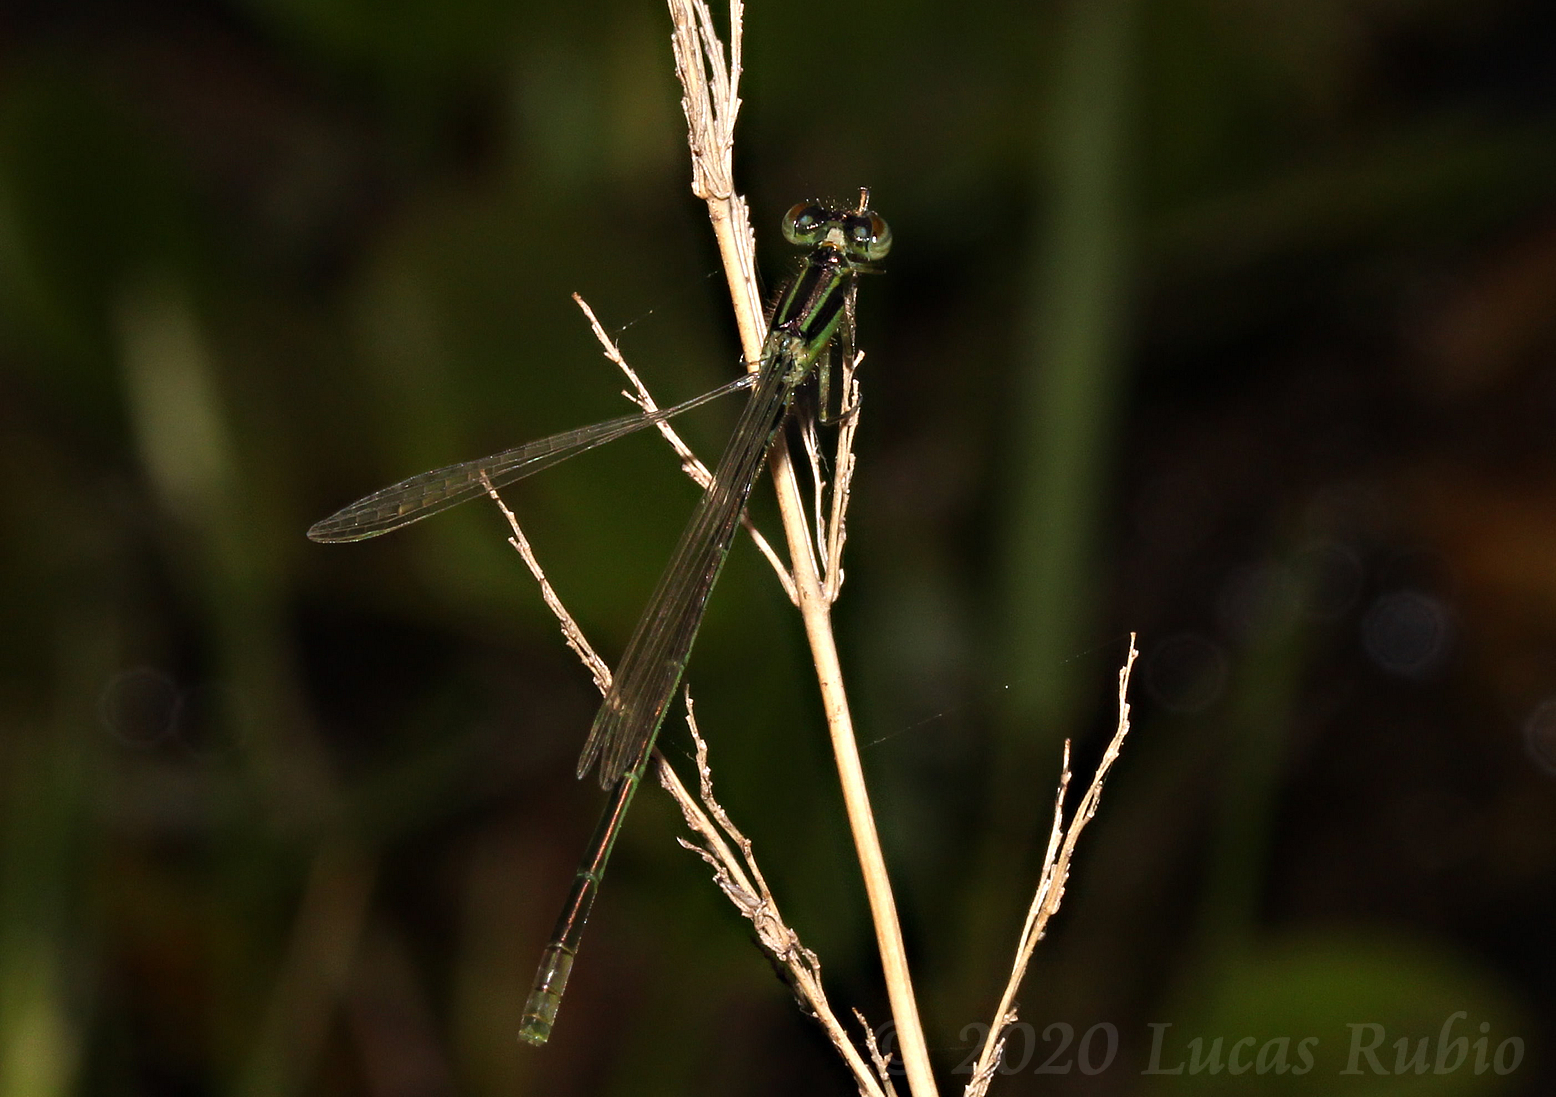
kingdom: Animalia
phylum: Arthropoda
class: Insecta
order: Odonata
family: Coenagrionidae
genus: Ischnura
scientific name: Ischnura fluviatilis
